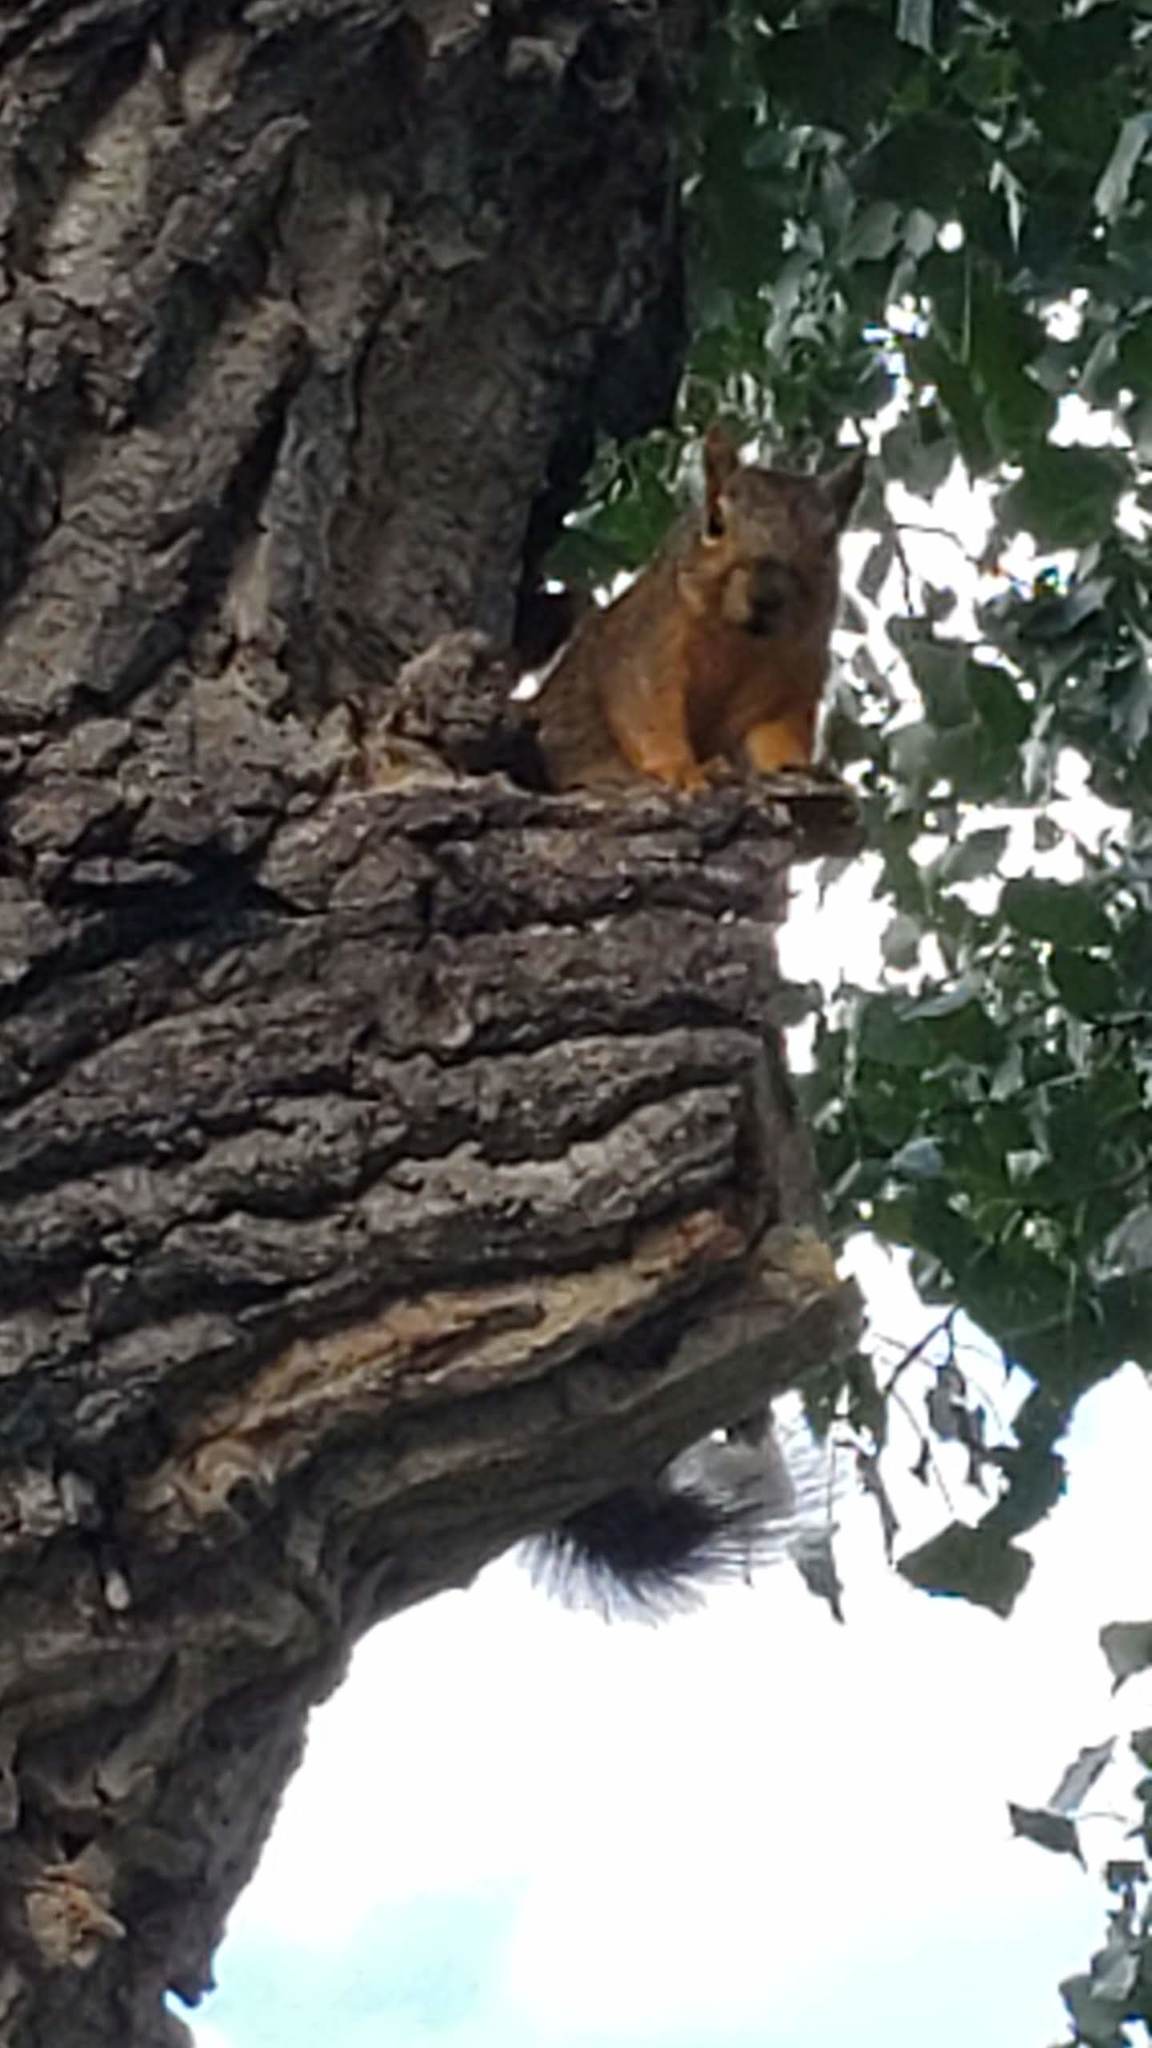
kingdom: Animalia
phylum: Chordata
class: Mammalia
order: Rodentia
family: Sciuridae
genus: Sciurus
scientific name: Sciurus niger
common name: Fox squirrel
